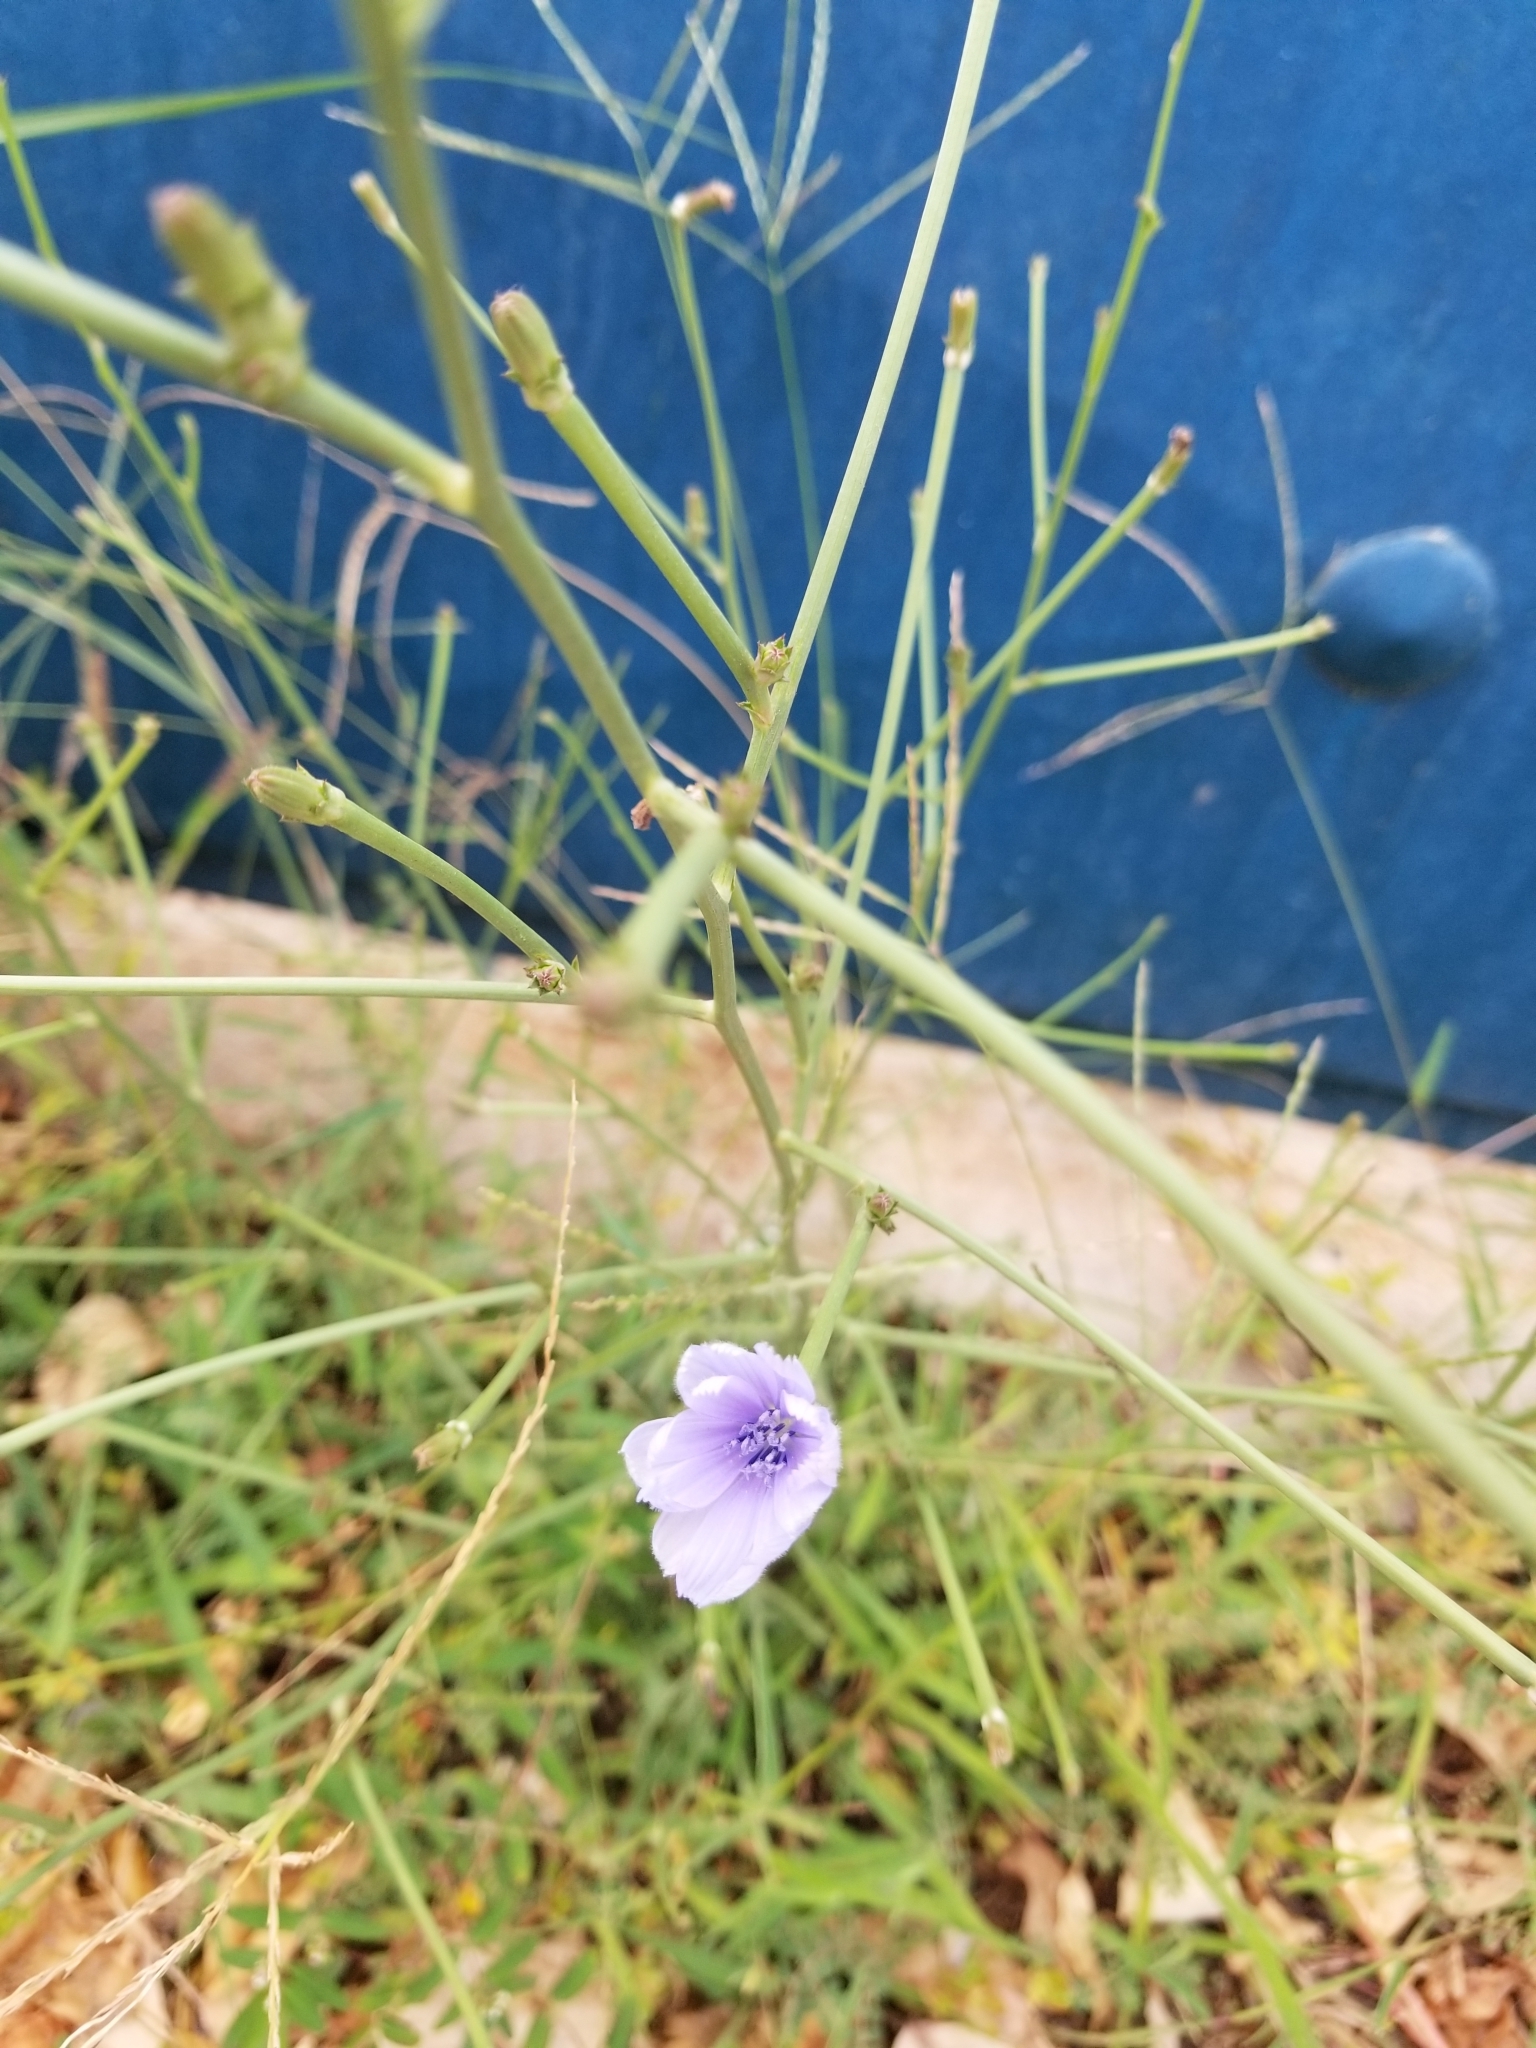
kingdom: Plantae
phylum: Tracheophyta
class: Magnoliopsida
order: Asterales
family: Asteraceae
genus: Cichorium
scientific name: Cichorium intybus
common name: Chicory
